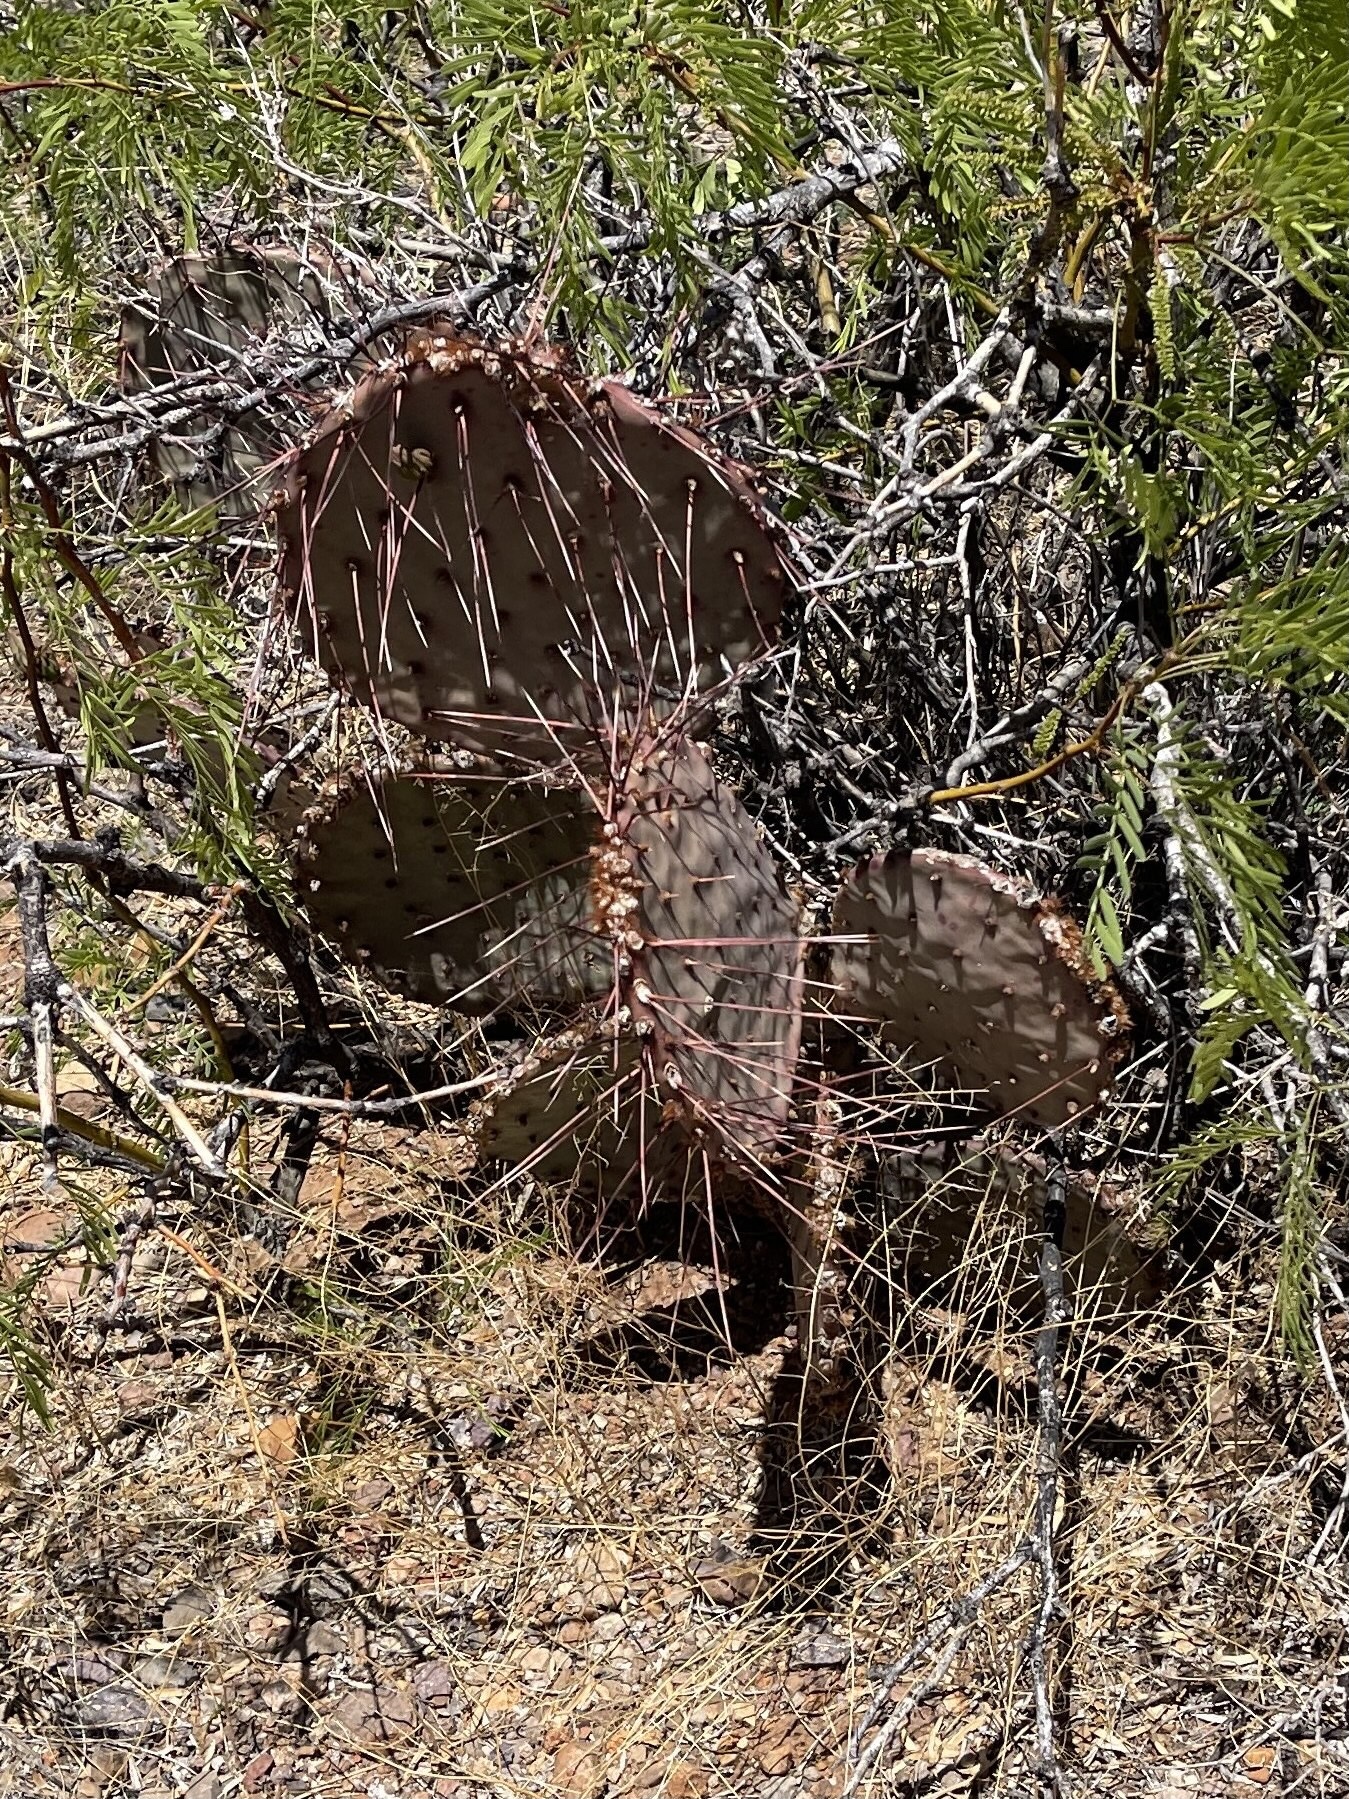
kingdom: Plantae
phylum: Tracheophyta
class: Magnoliopsida
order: Caryophyllales
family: Cactaceae
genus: Opuntia
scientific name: Opuntia macrocentra
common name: Purple prickly-pear
